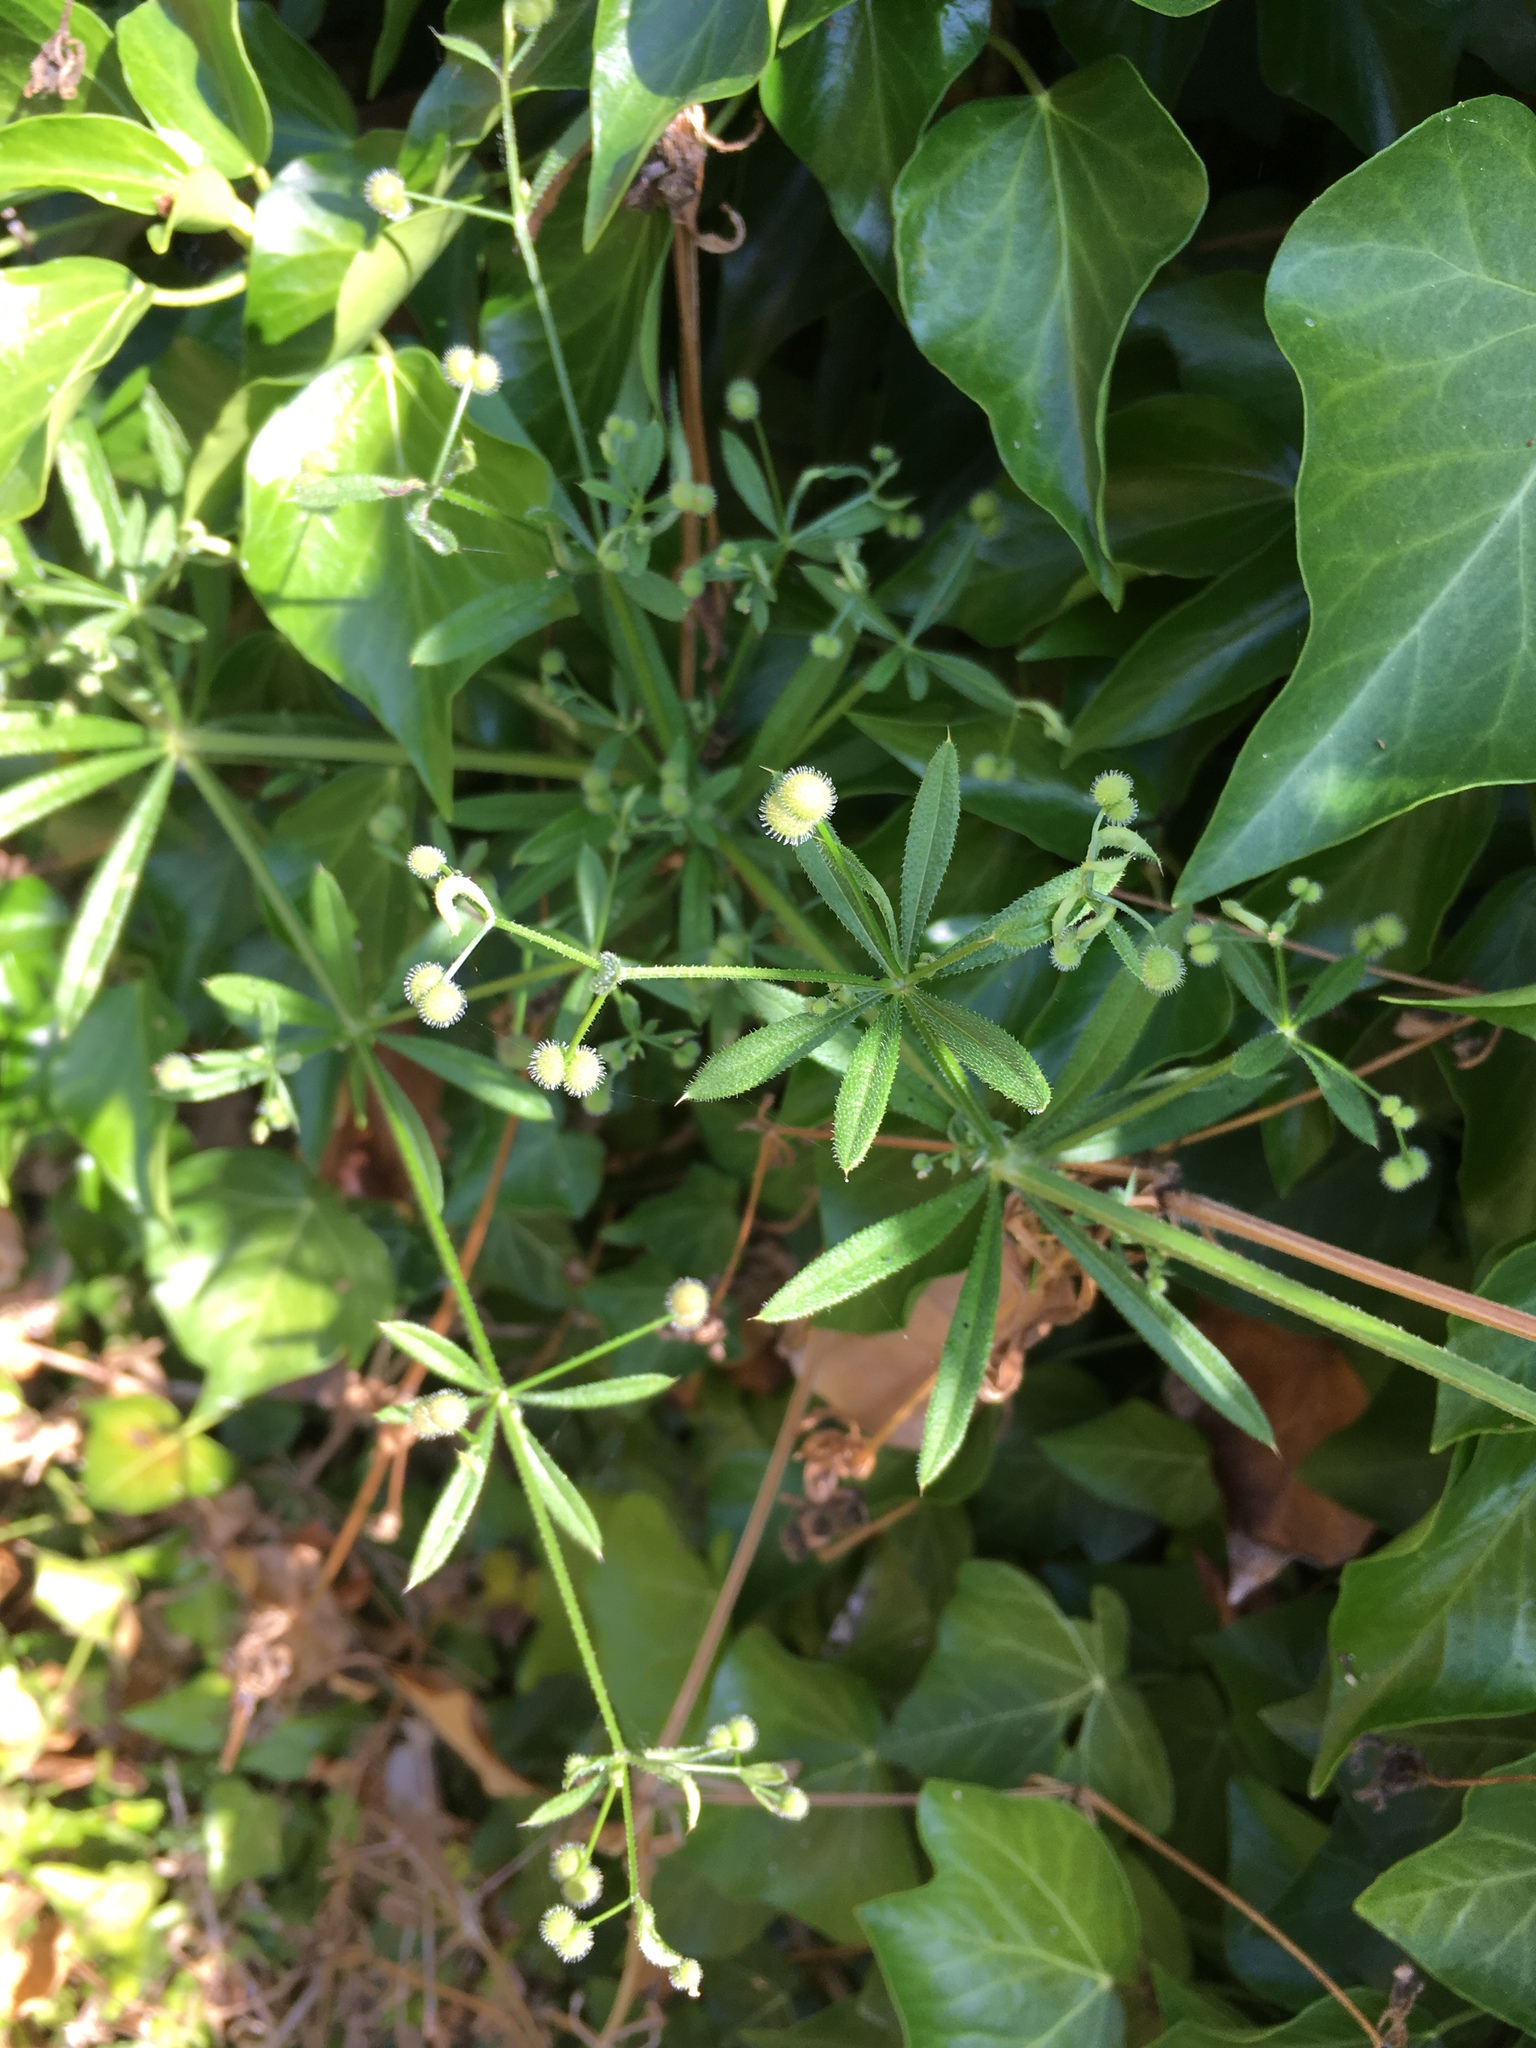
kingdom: Plantae
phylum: Tracheophyta
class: Magnoliopsida
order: Gentianales
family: Rubiaceae
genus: Galium
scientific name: Galium aparine
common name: Cleavers
